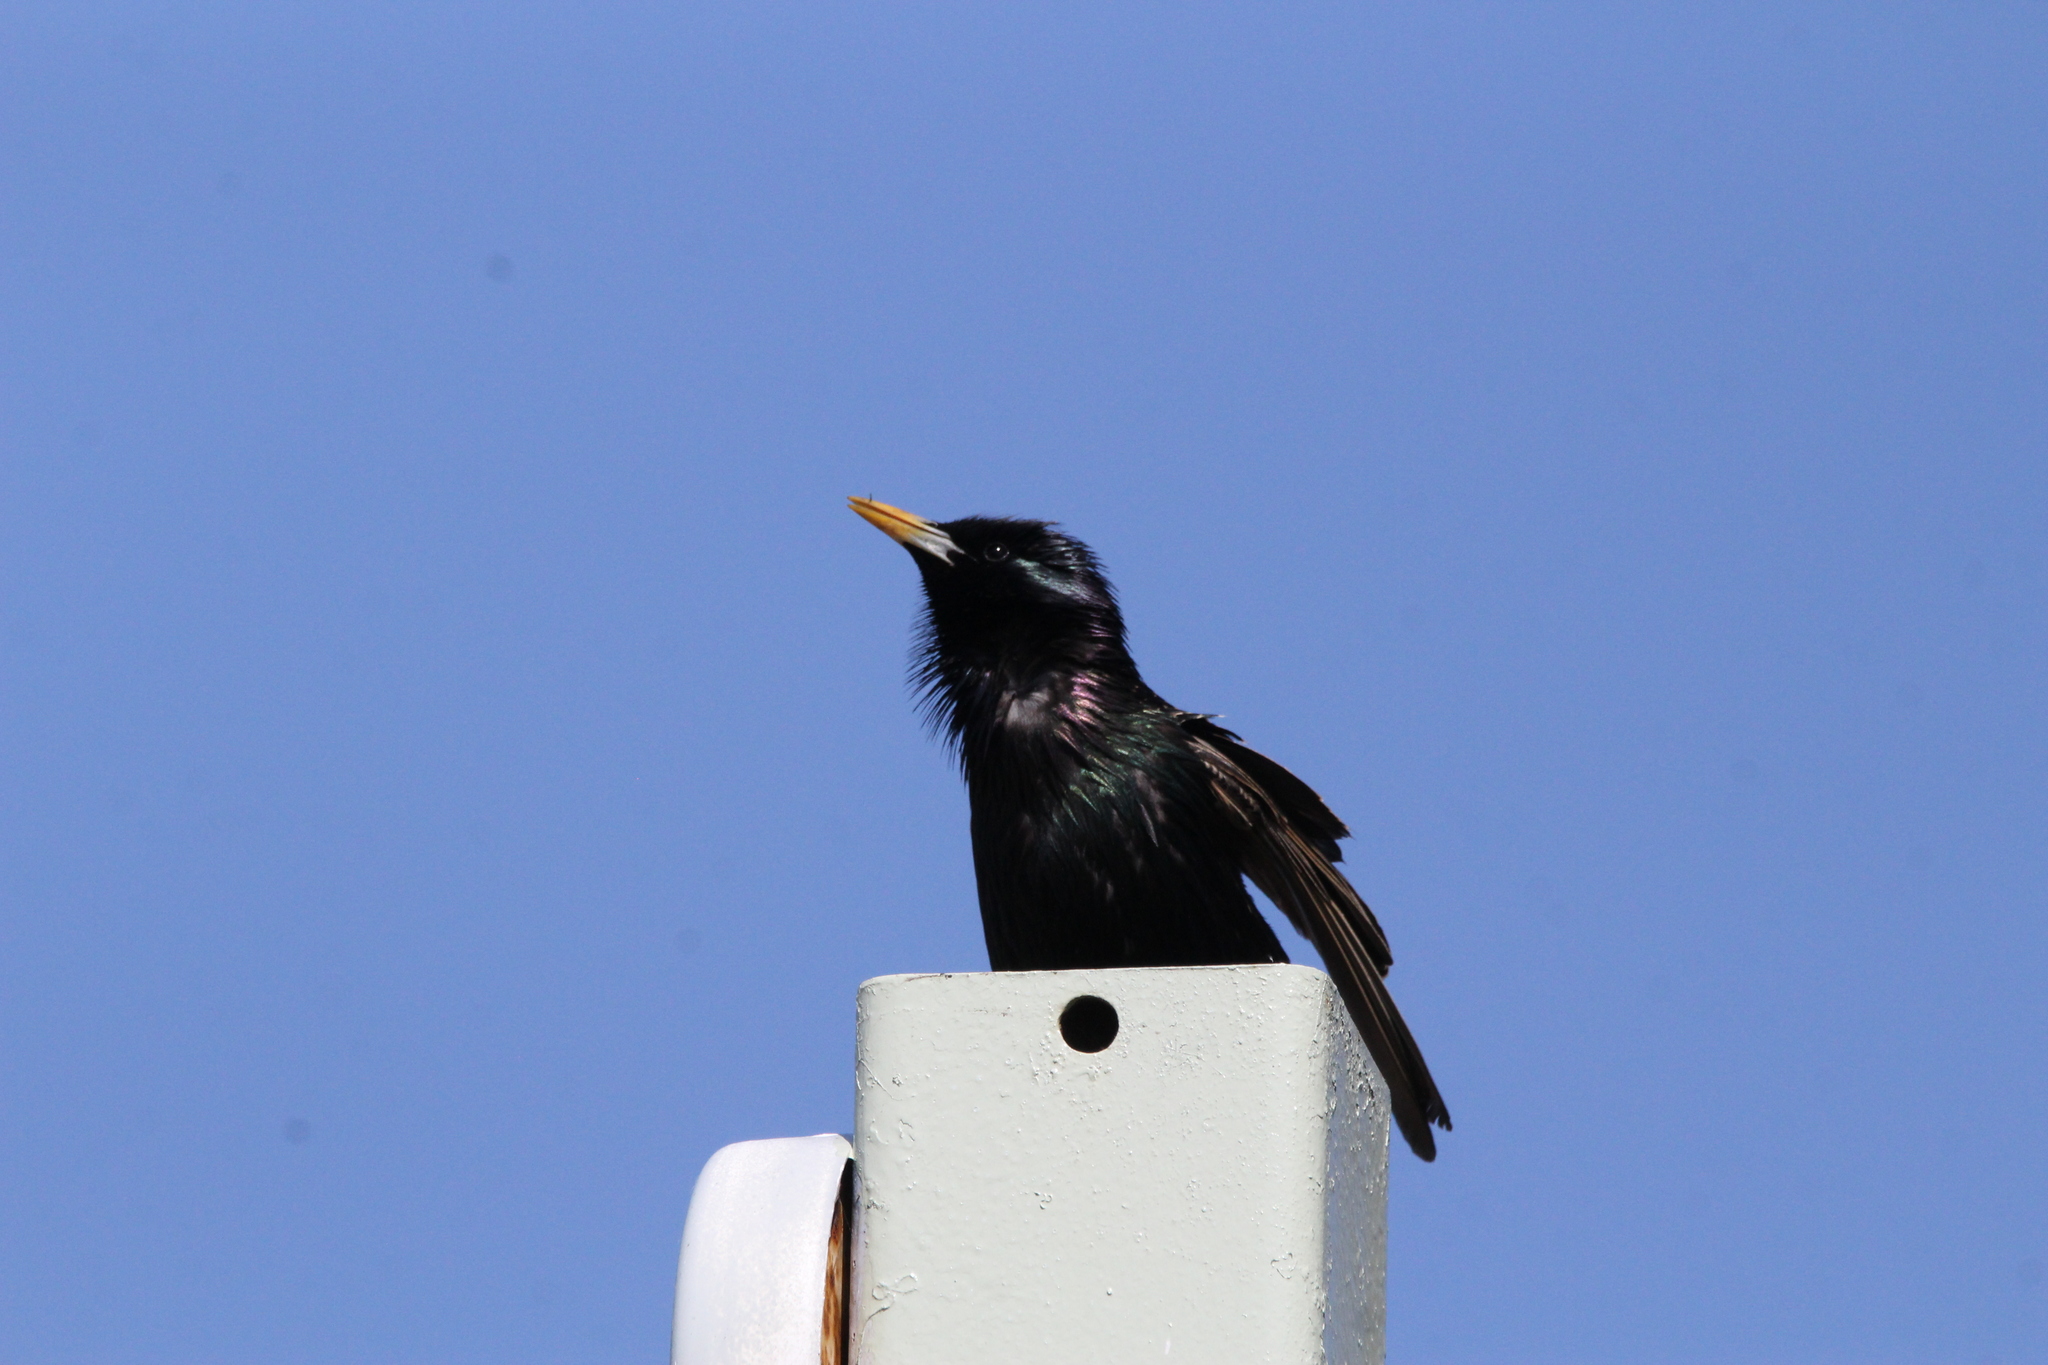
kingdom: Animalia
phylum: Chordata
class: Aves
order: Passeriformes
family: Sturnidae
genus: Sturnus
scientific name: Sturnus vulgaris
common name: Common starling
